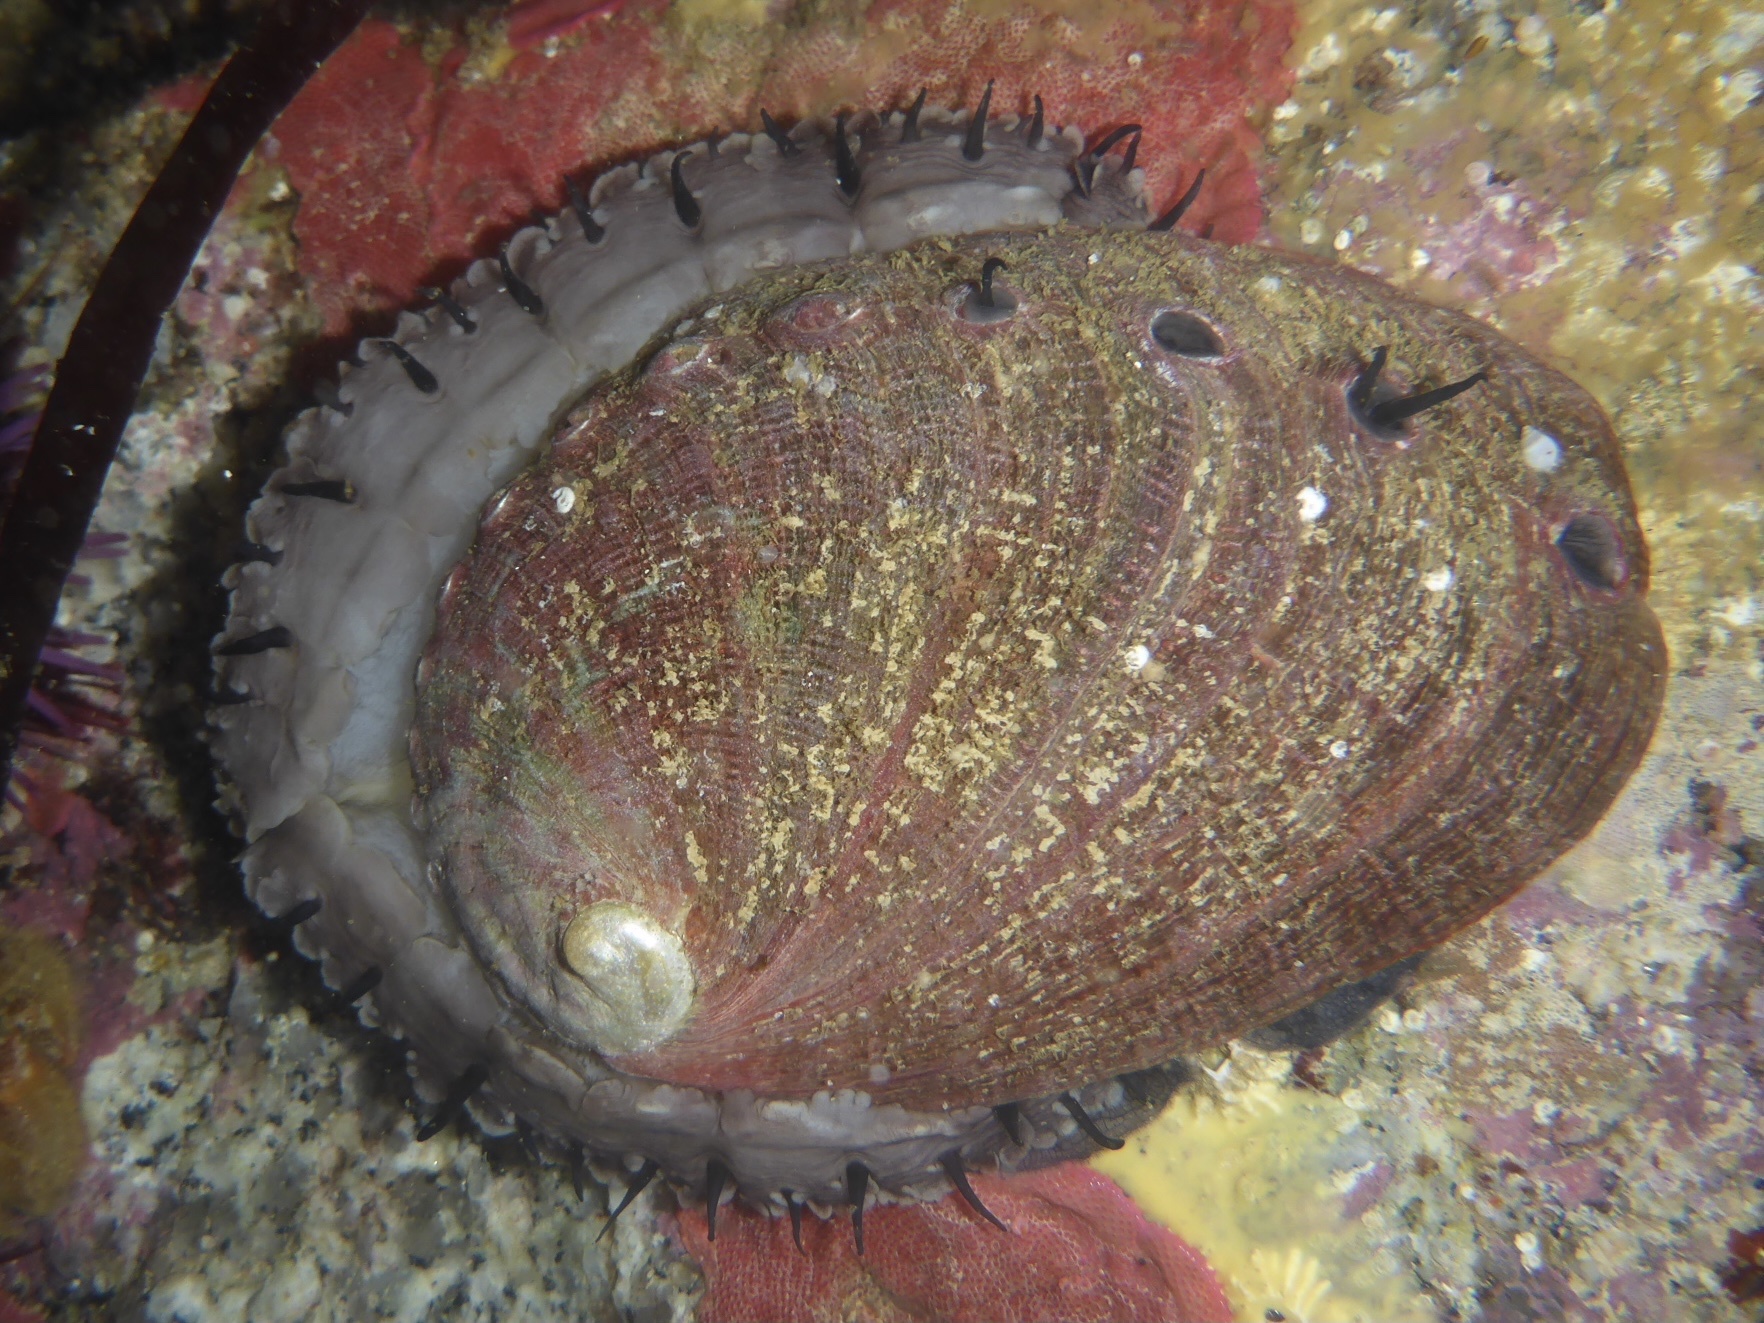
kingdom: Animalia
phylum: Mollusca
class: Gastropoda
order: Lepetellida
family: Haliotidae
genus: Haliotis
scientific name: Haliotis rufescens
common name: Red abalone
